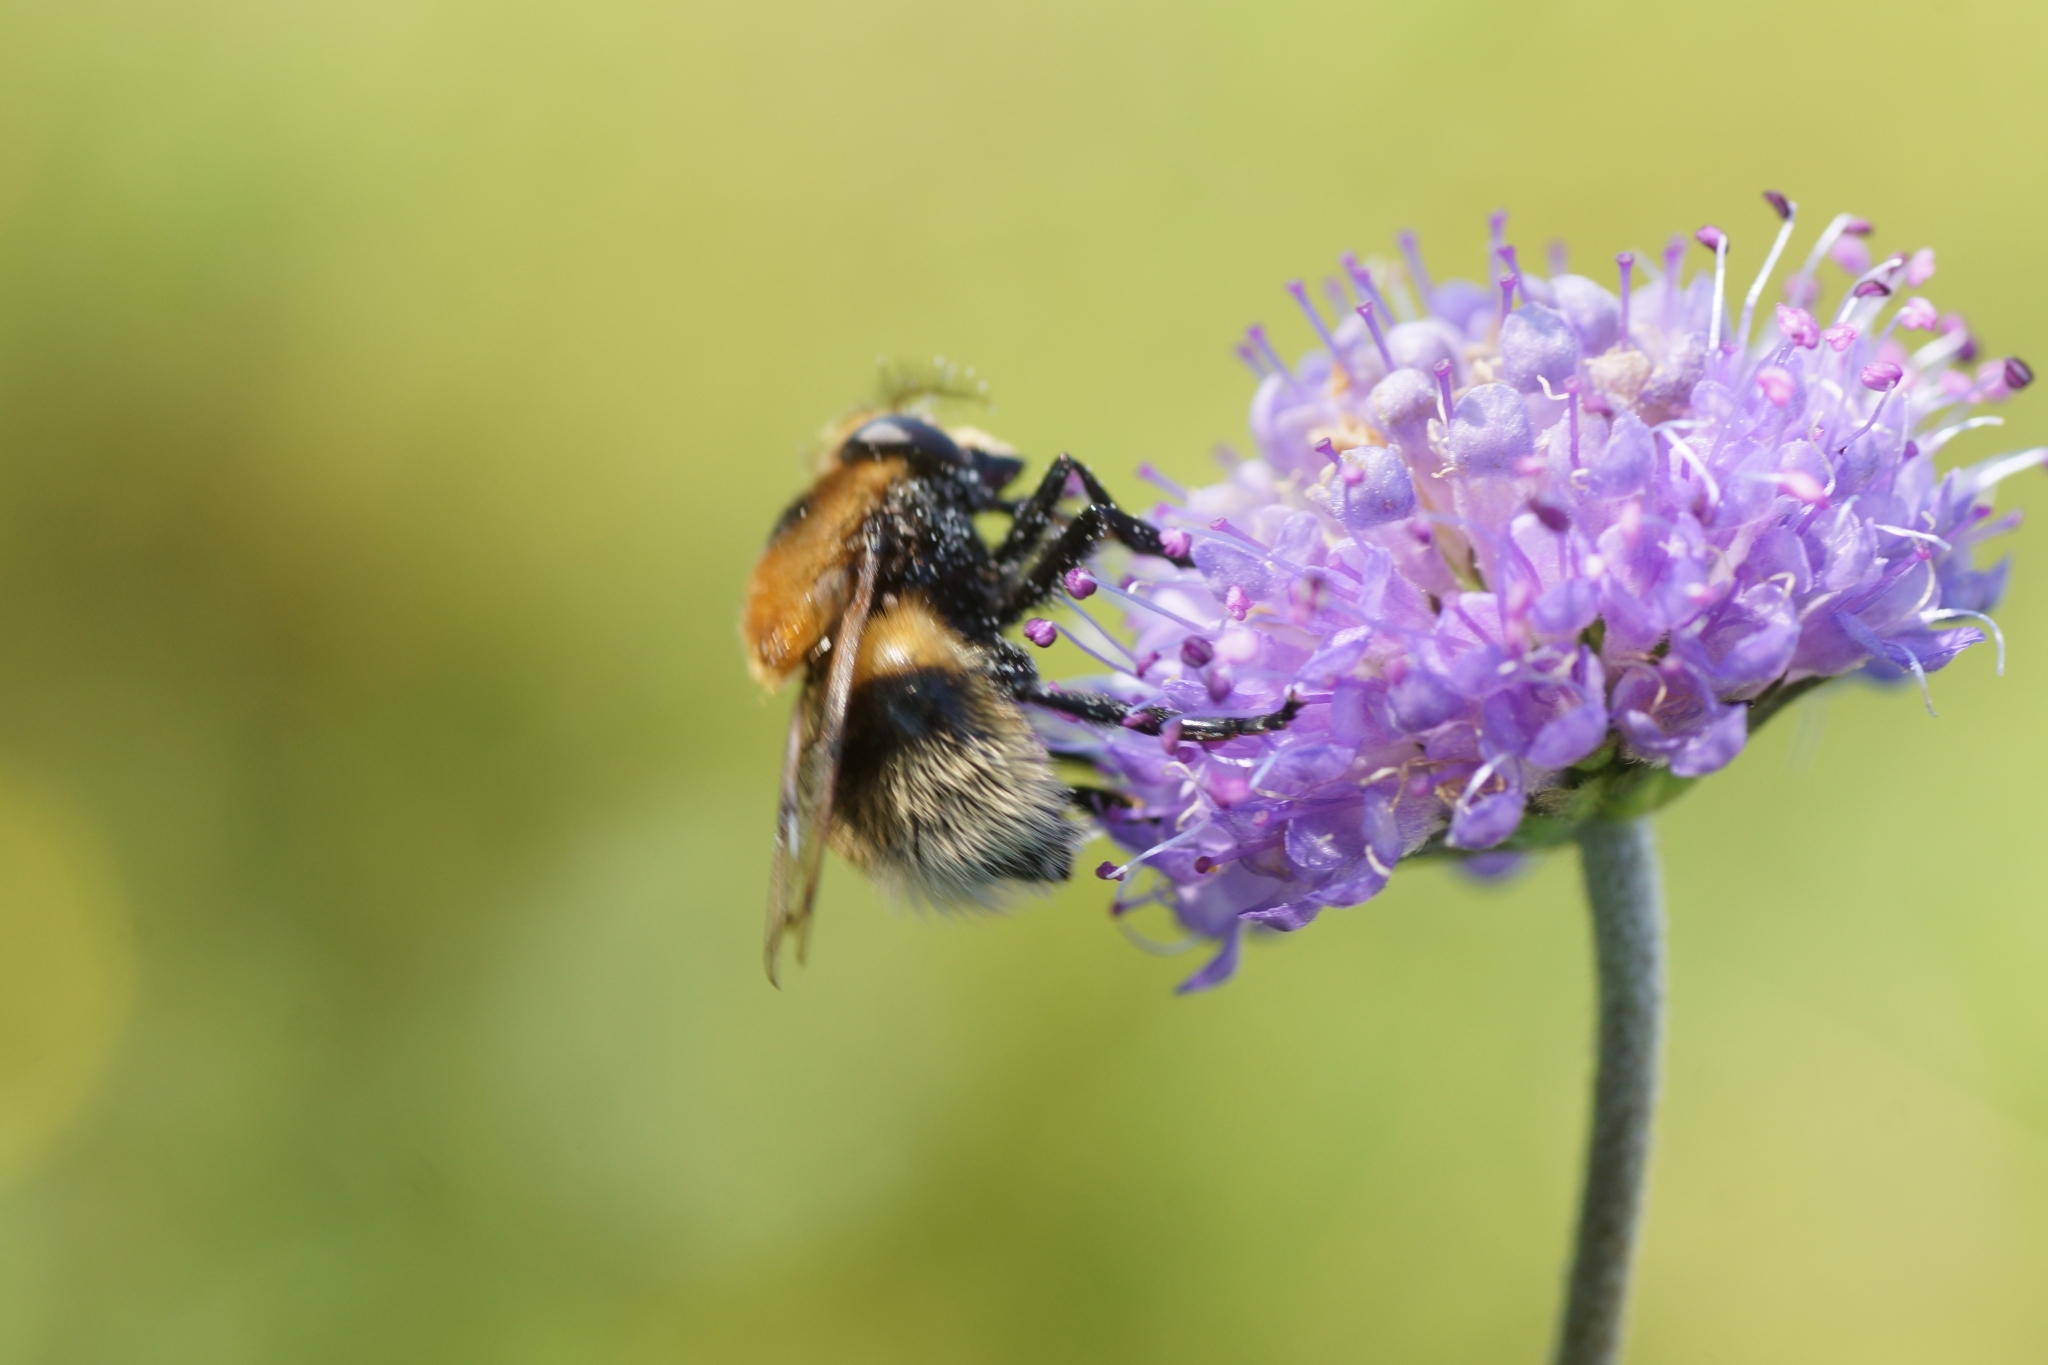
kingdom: Animalia
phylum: Arthropoda
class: Insecta
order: Diptera
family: Syrphidae
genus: Volucella
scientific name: Volucella bombylans
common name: Bumble bee hover fly
